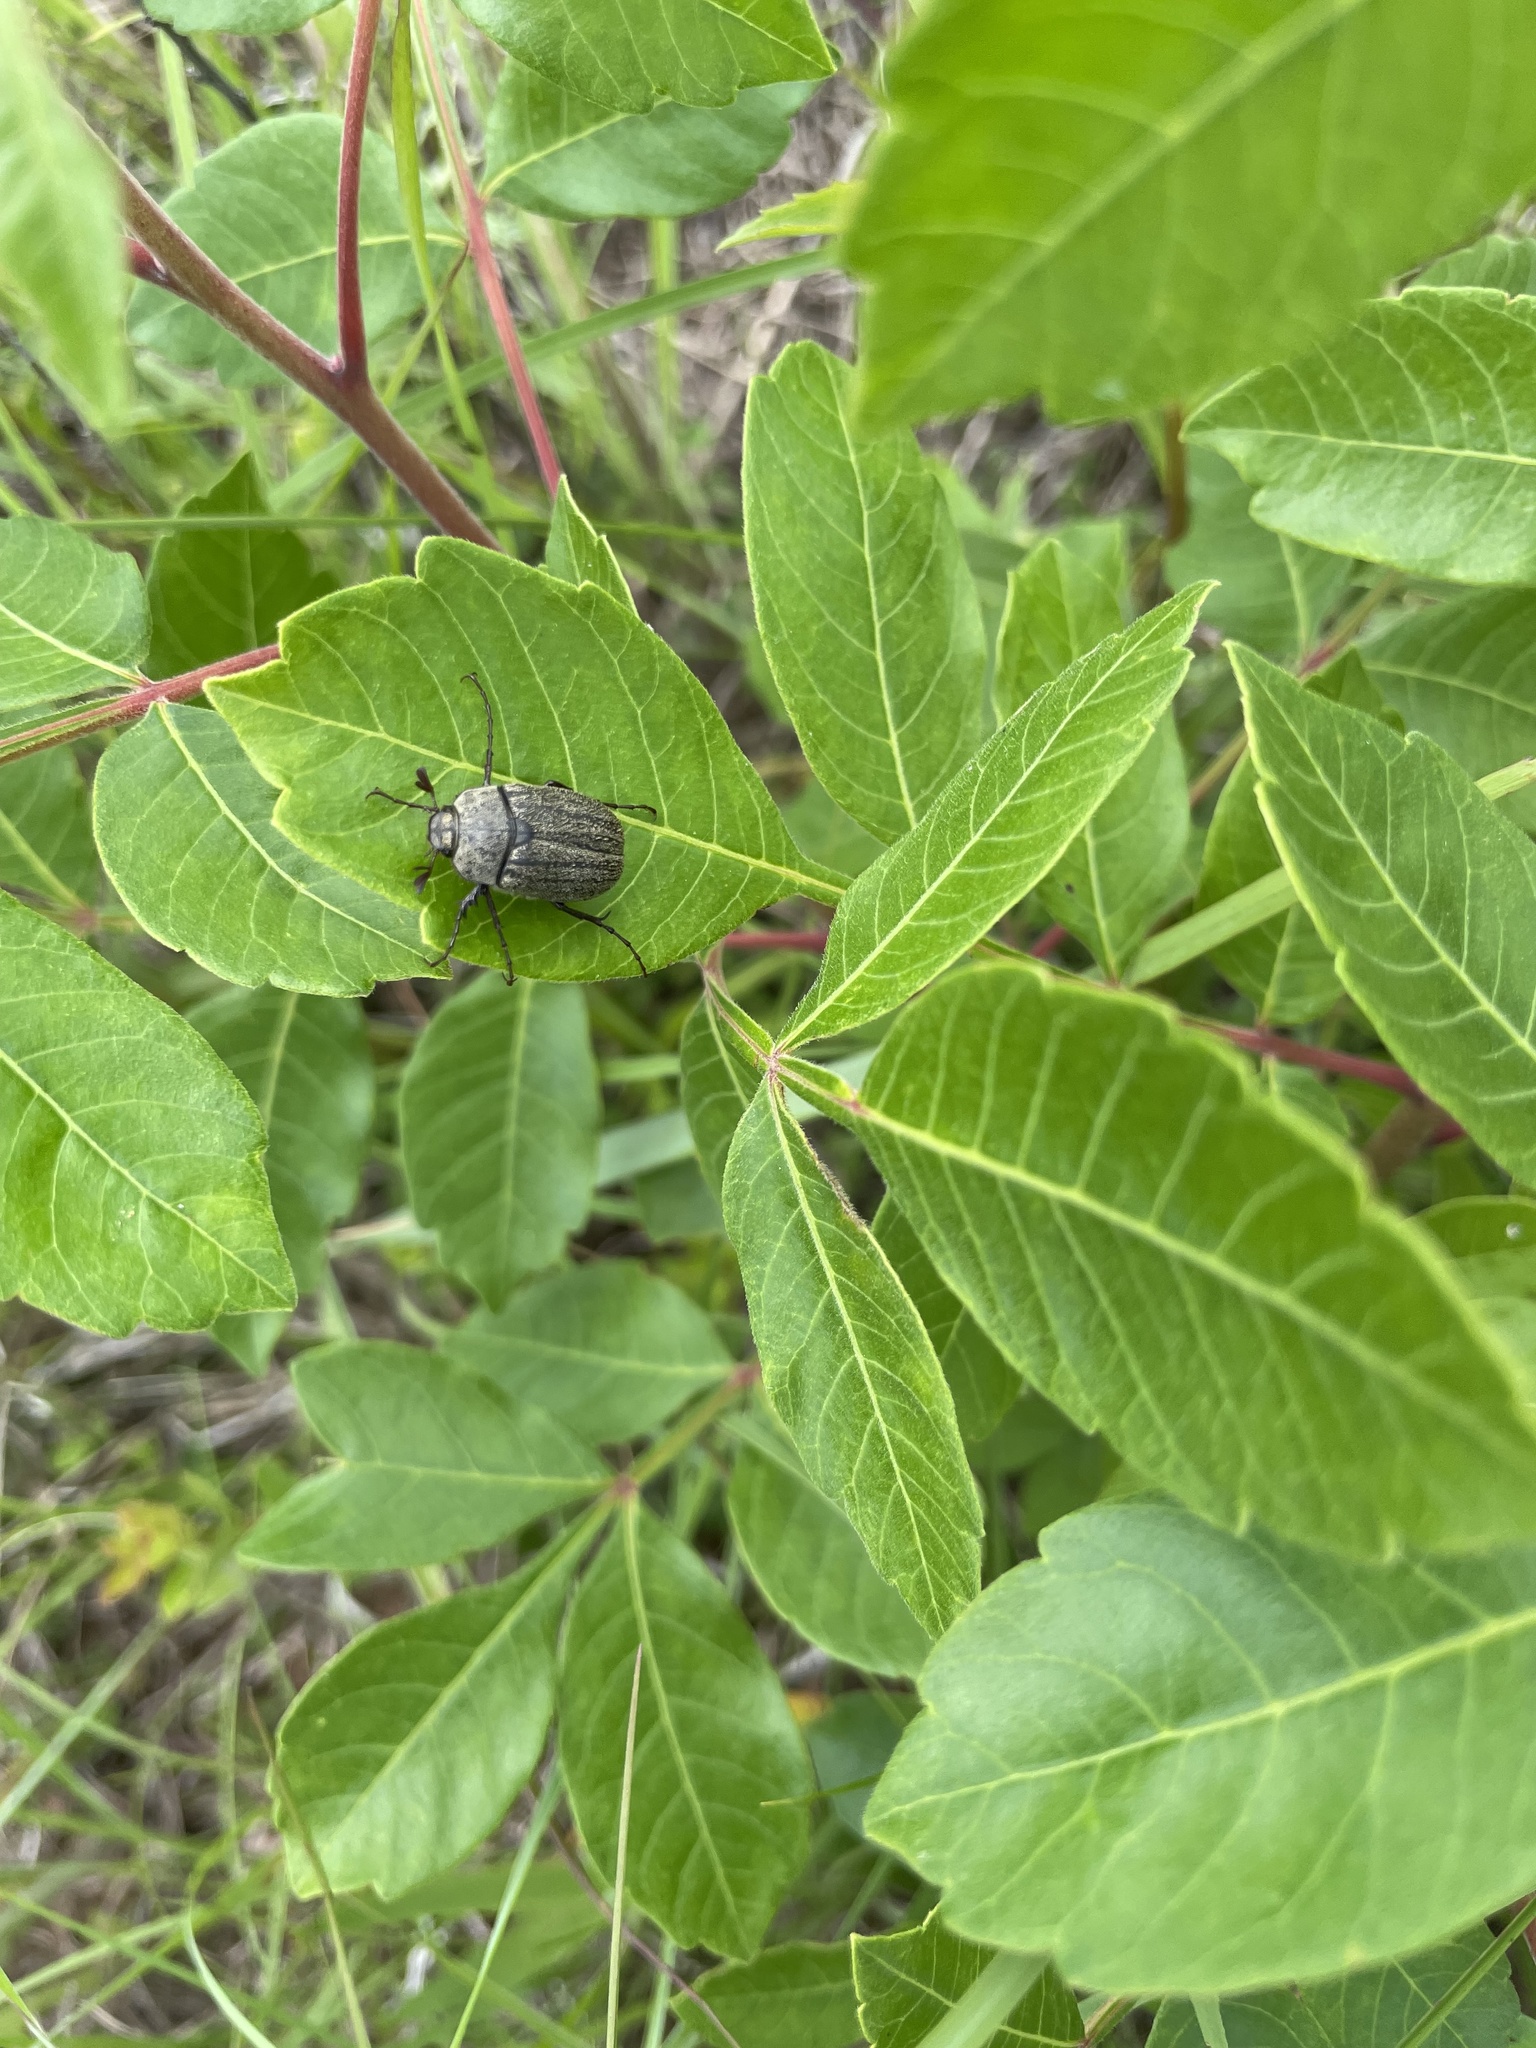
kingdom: Animalia
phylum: Arthropoda
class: Insecta
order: Coleoptera
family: Scarabaeidae
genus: Phyllophaga
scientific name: Phyllophaga lanceolata
